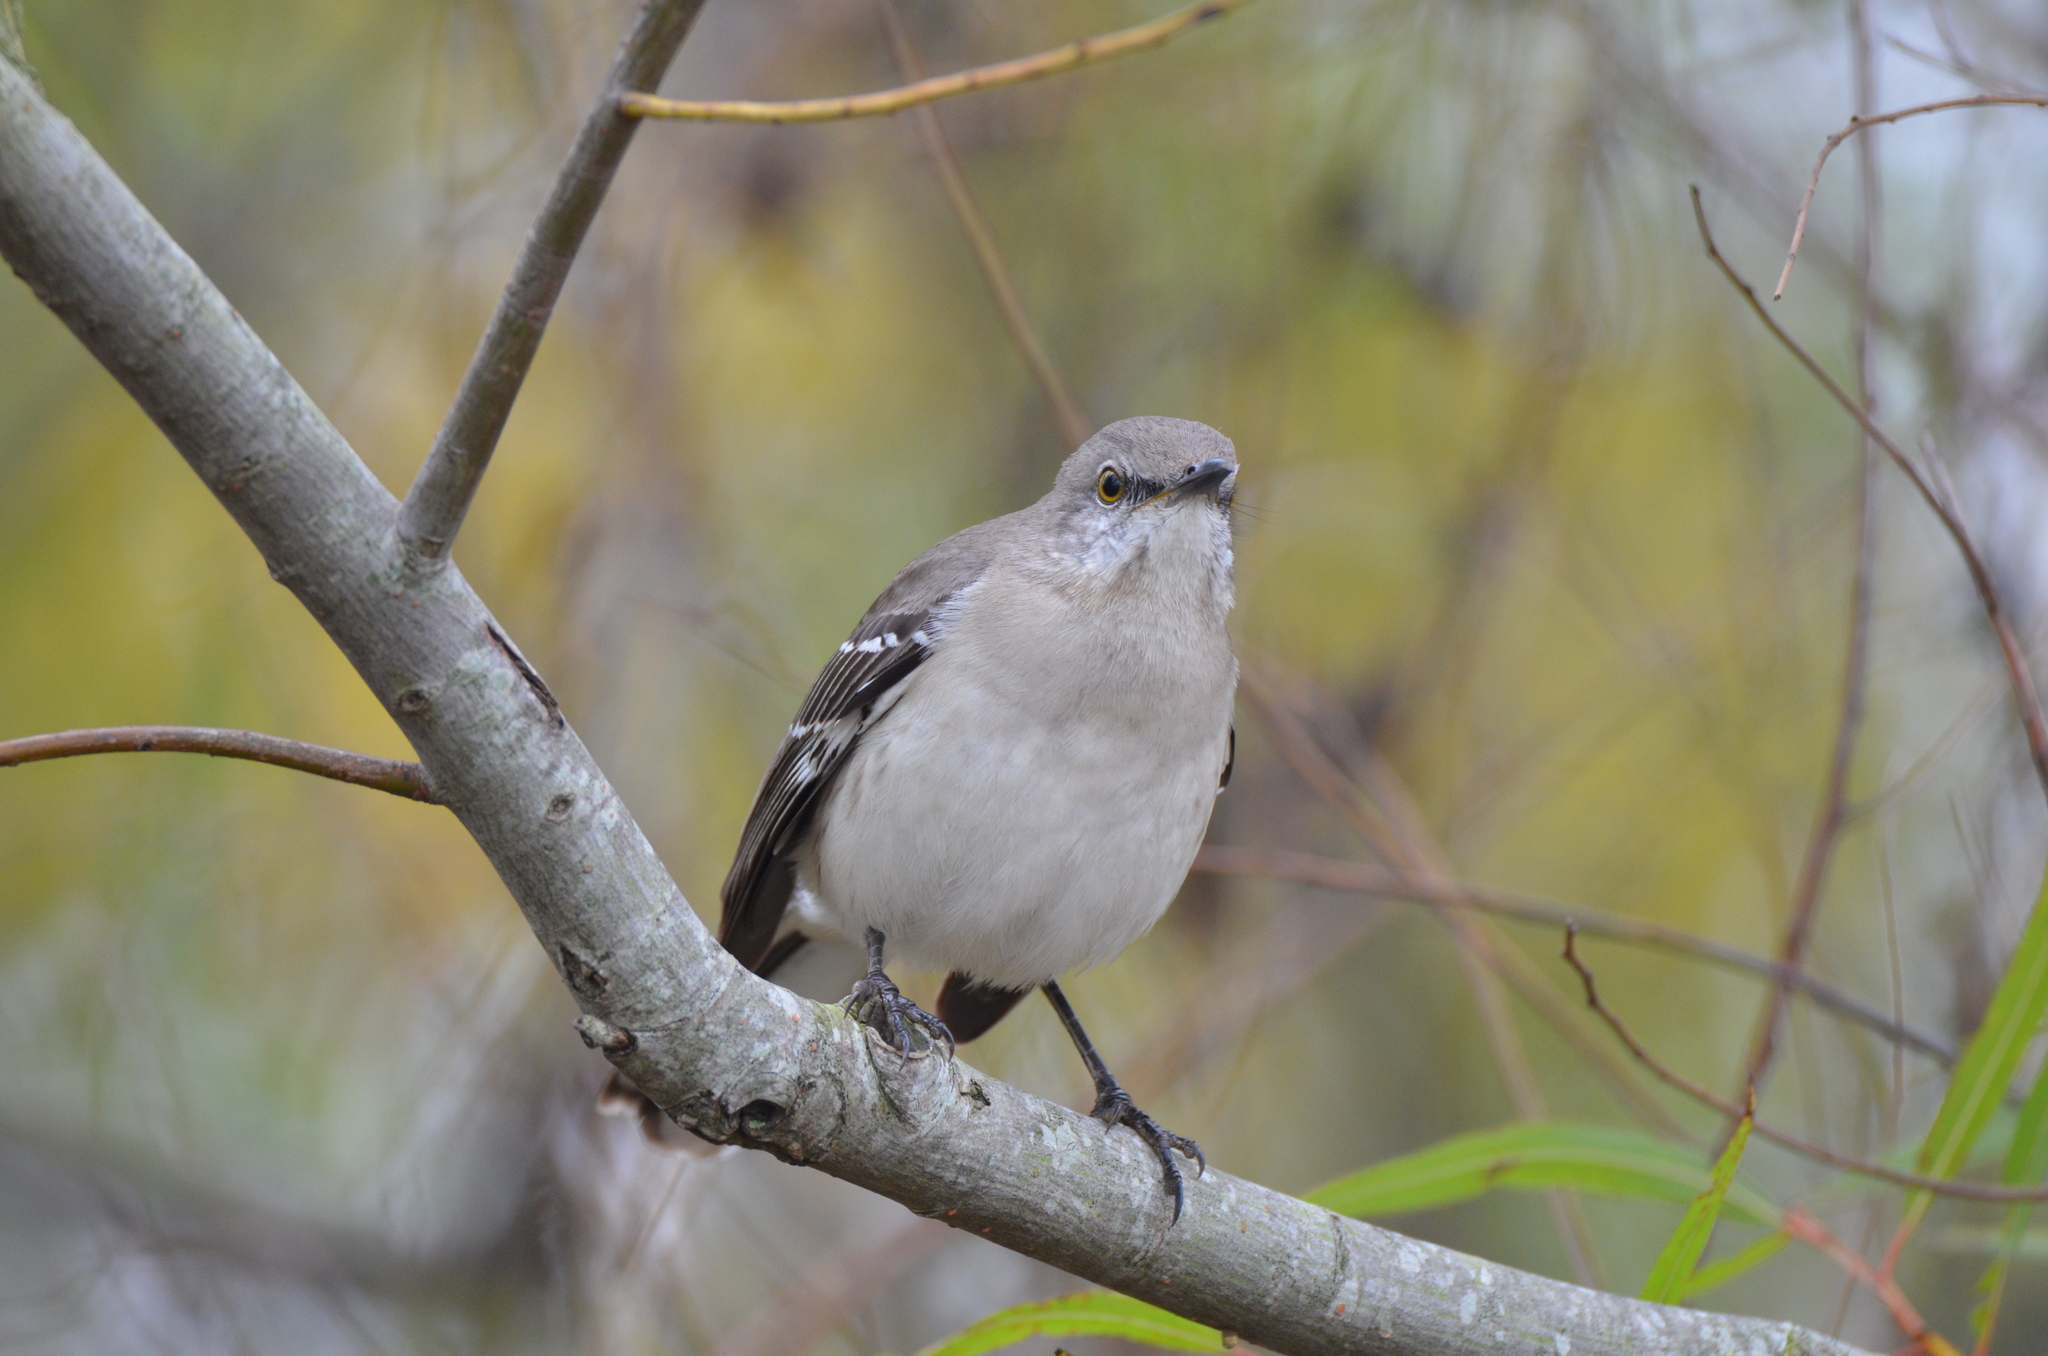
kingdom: Animalia
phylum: Chordata
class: Aves
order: Passeriformes
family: Mimidae
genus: Mimus
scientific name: Mimus polyglottos
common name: Northern mockingbird
